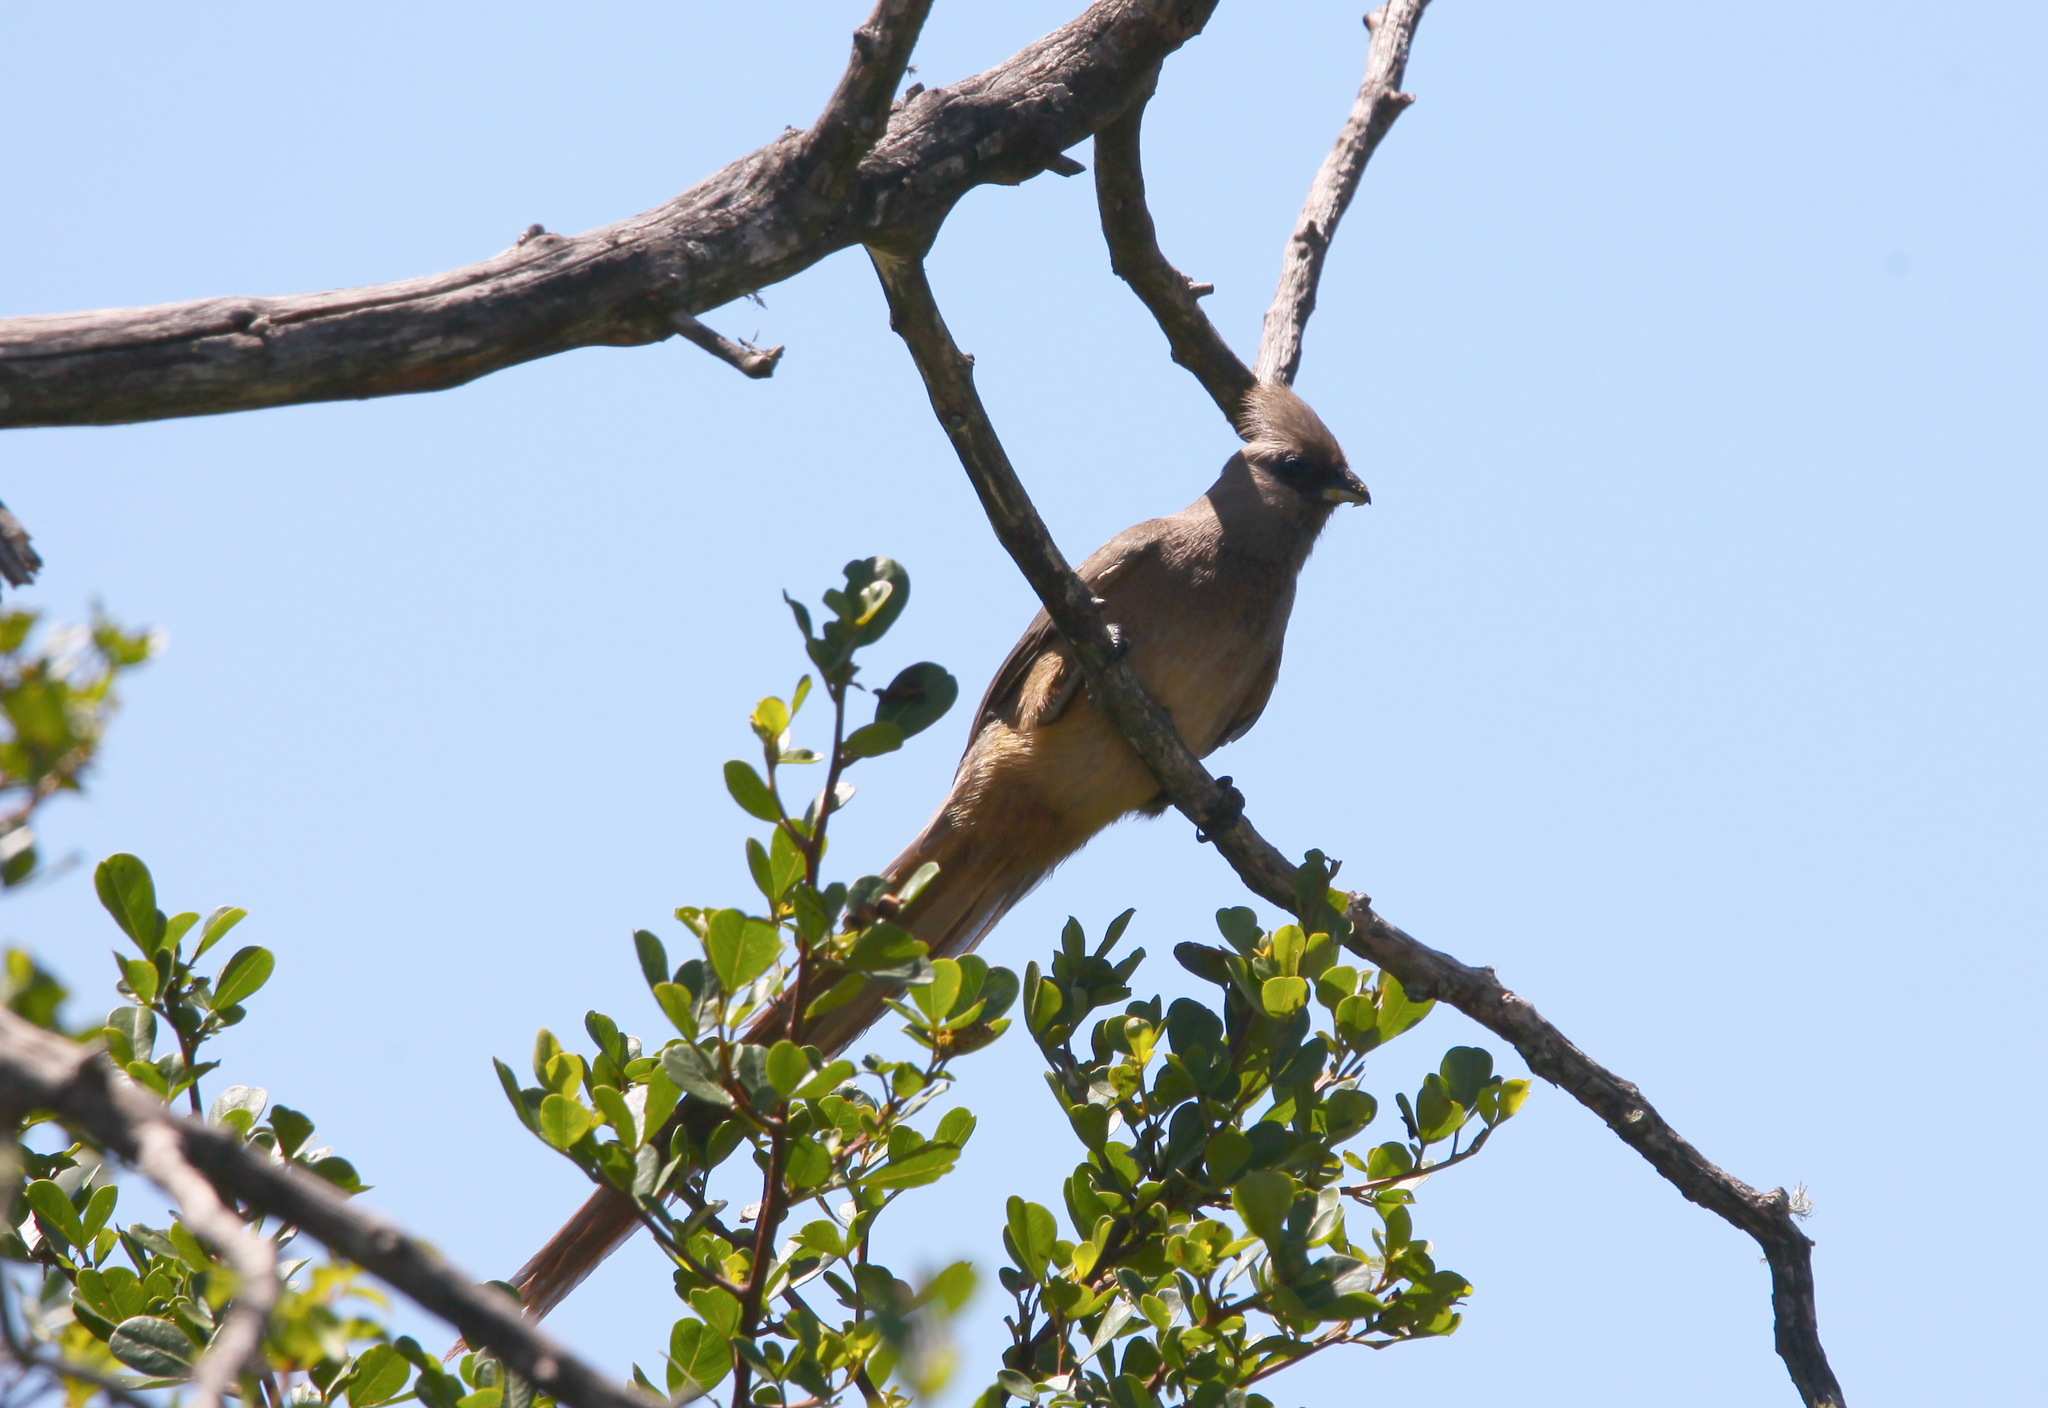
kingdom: Animalia
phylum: Chordata
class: Aves
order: Coliiformes
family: Coliidae
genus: Colius
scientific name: Colius striatus
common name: Speckled mousebird
